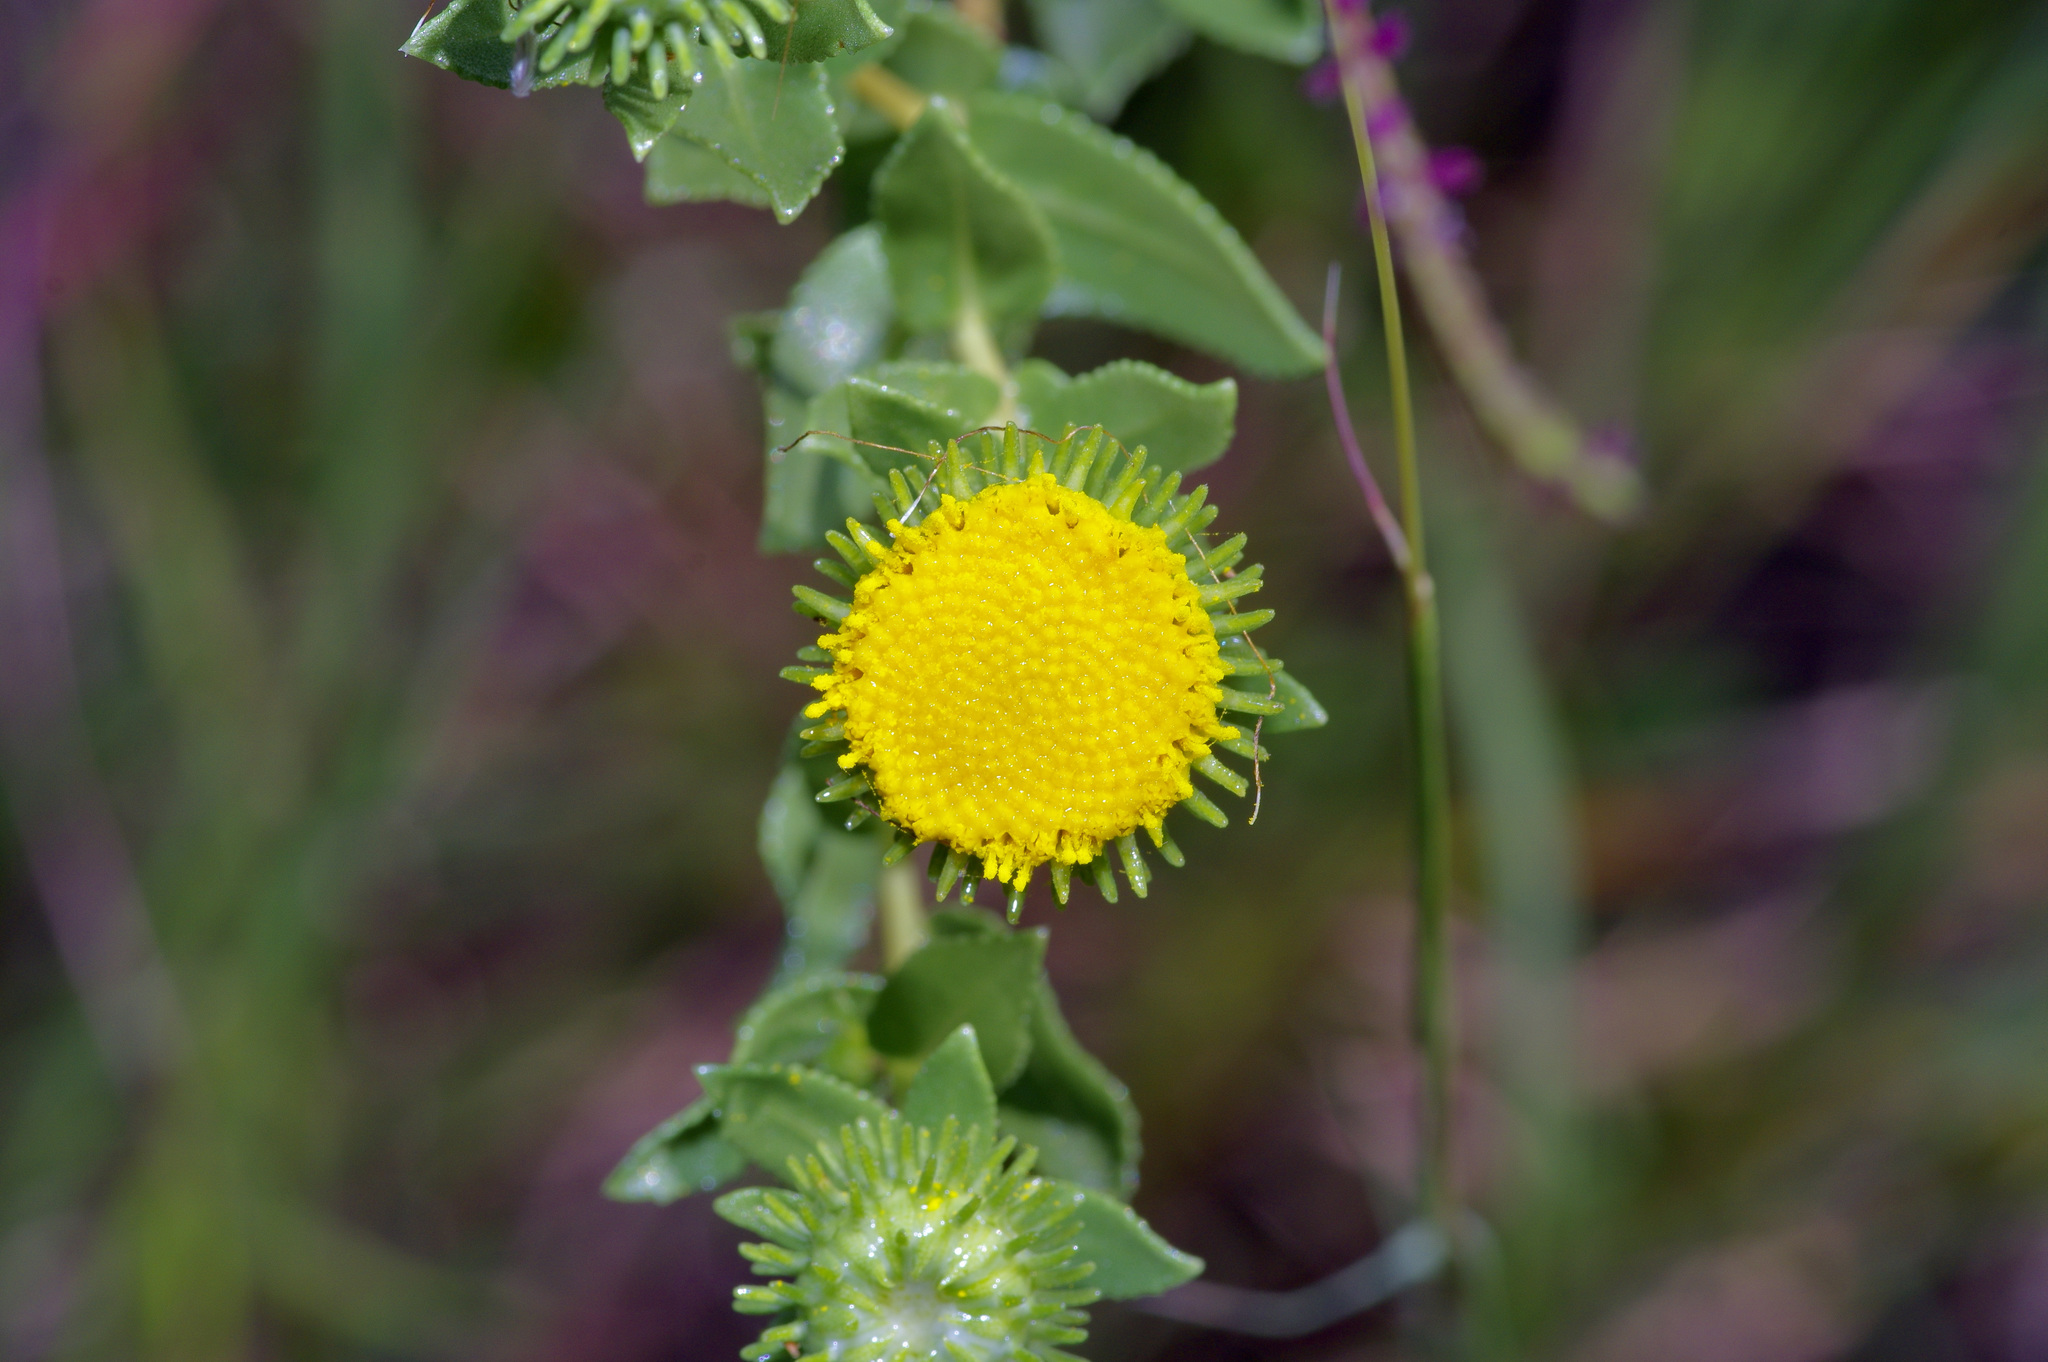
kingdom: Plantae
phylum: Tracheophyta
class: Magnoliopsida
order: Asterales
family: Asteraceae
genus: Grindelia
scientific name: Grindelia nuda
